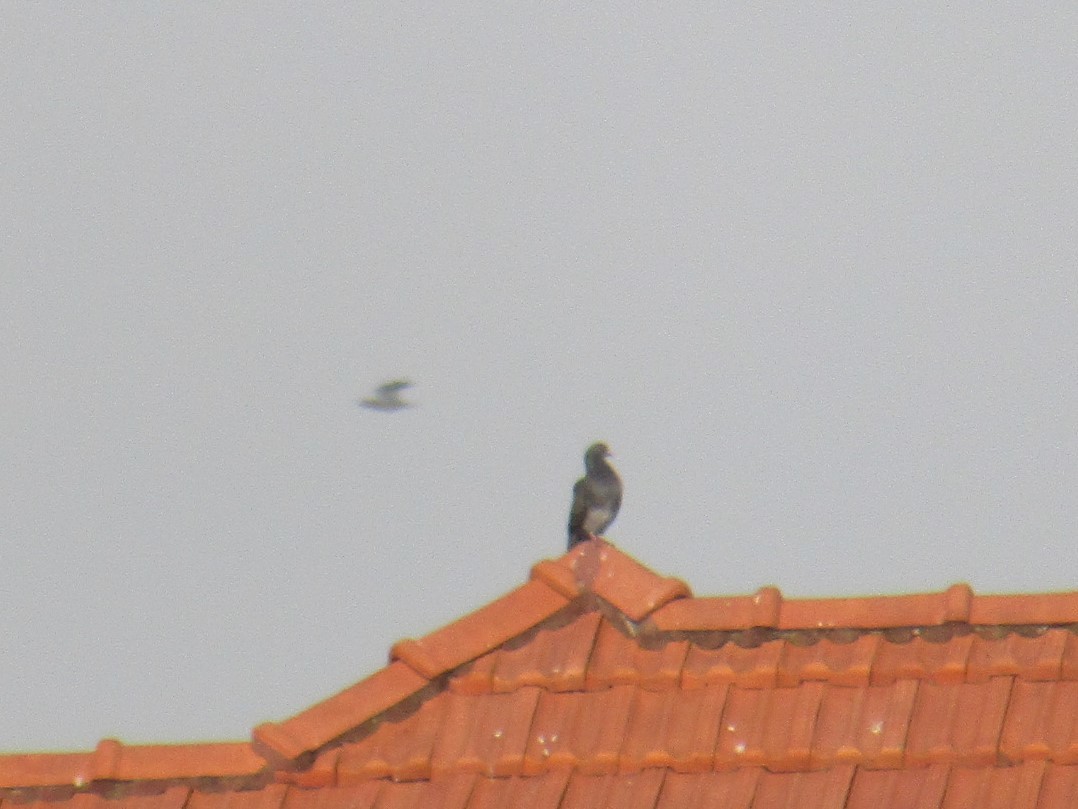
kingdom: Animalia
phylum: Chordata
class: Aves
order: Columbiformes
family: Columbidae
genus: Columba
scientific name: Columba livia
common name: Rock pigeon
